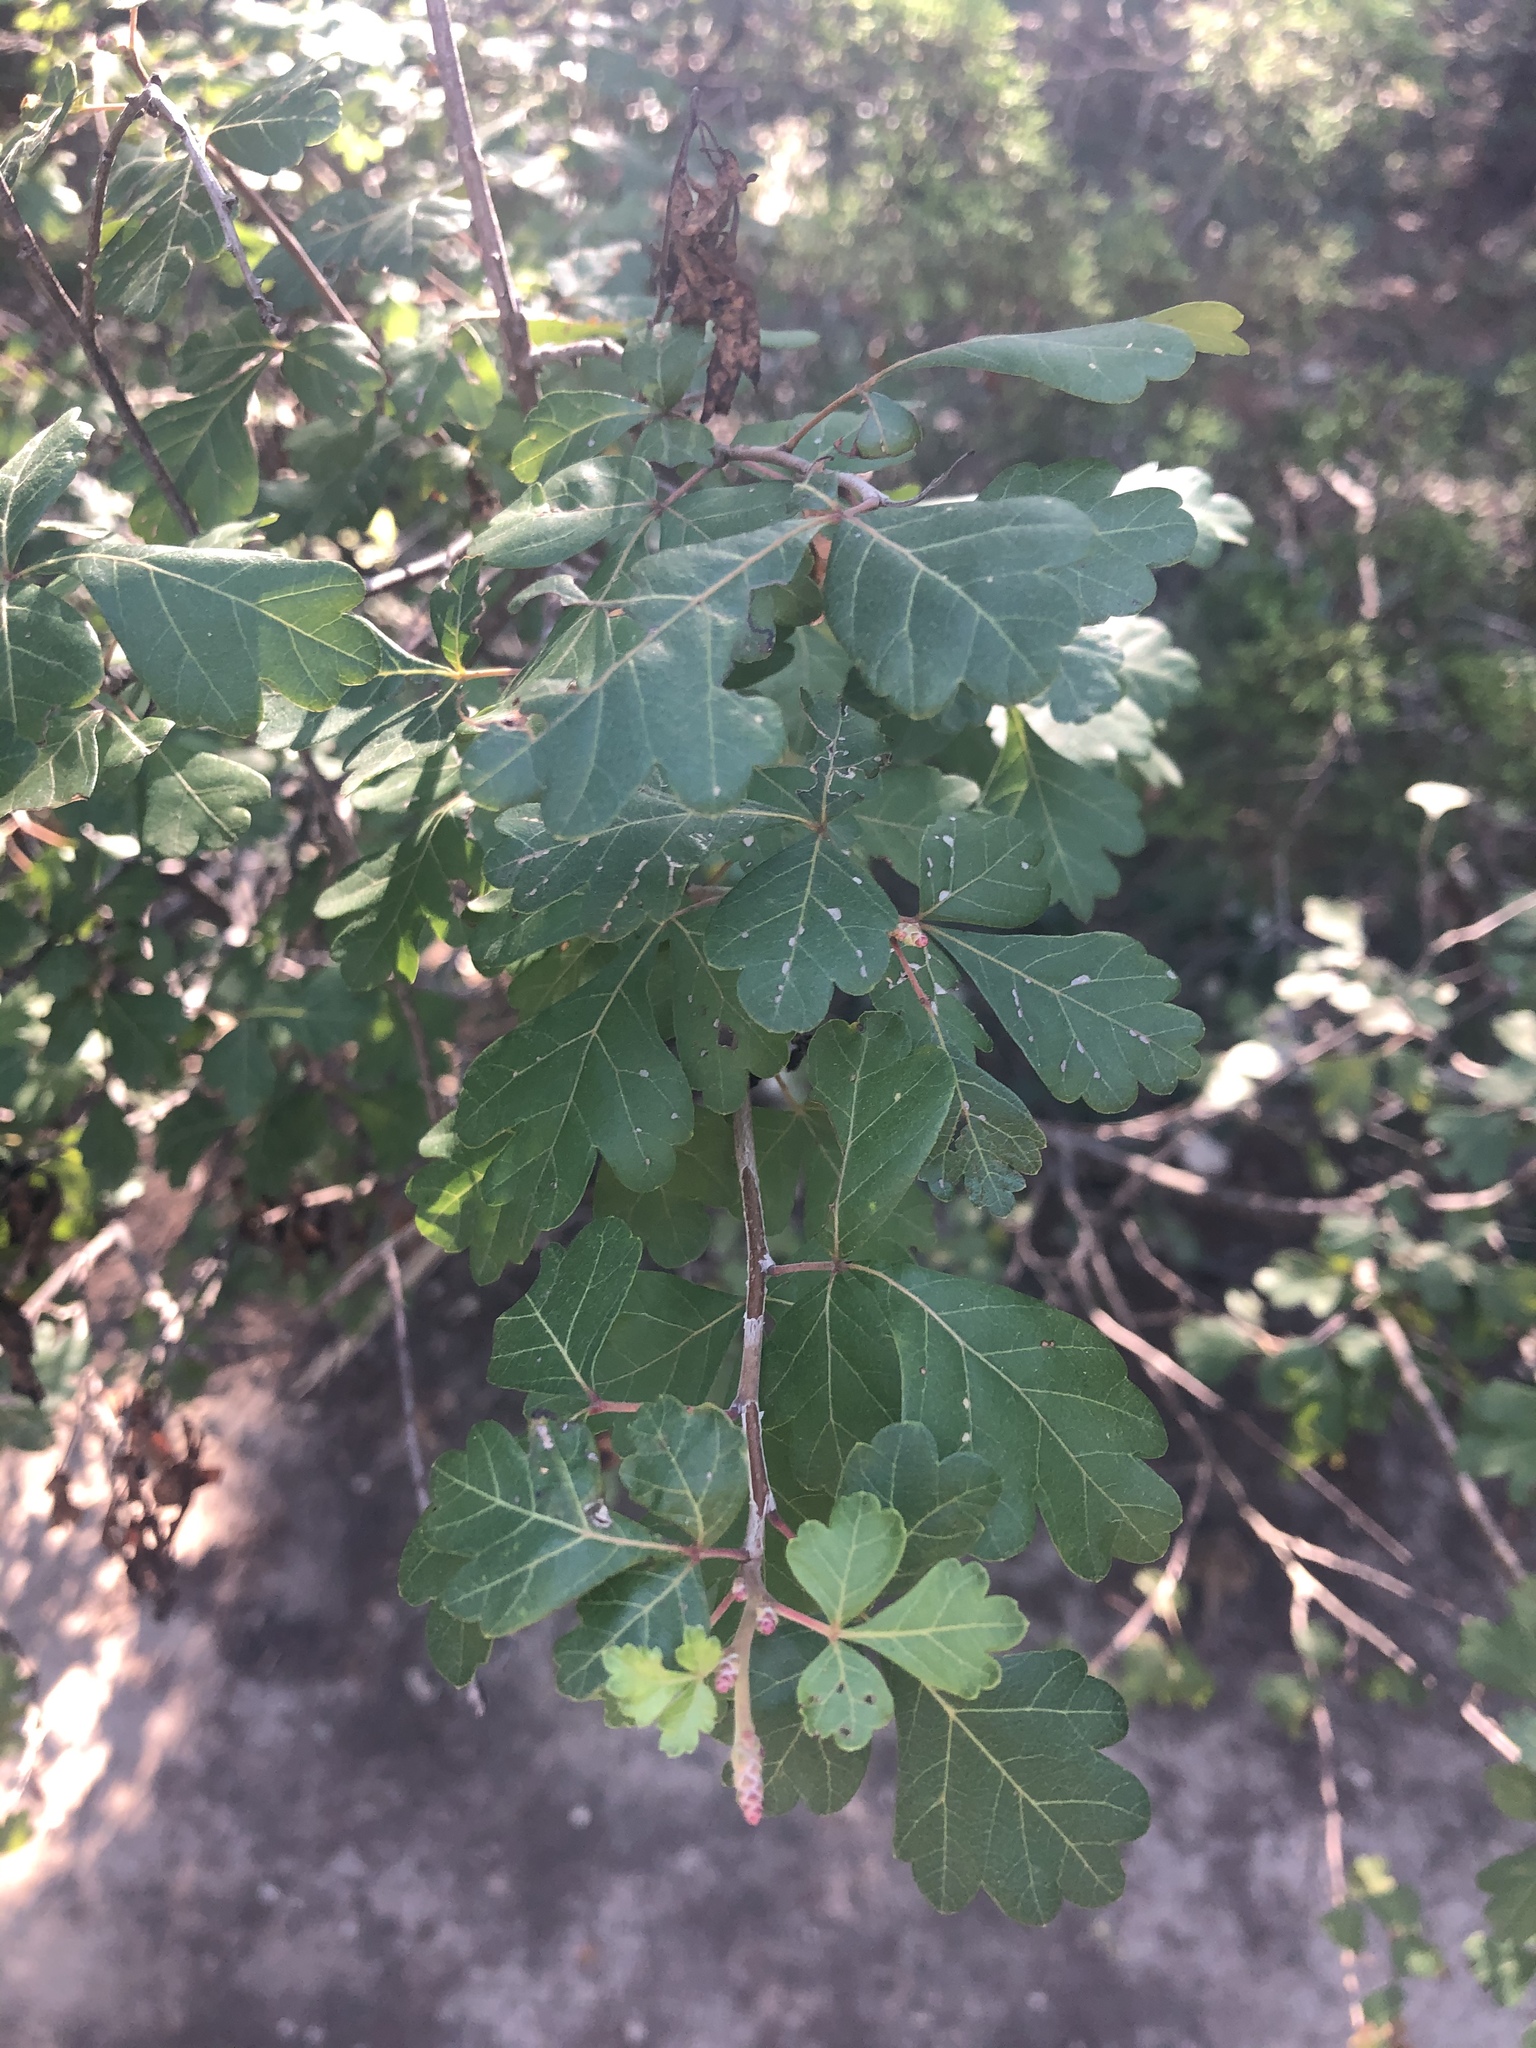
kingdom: Plantae
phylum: Tracheophyta
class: Magnoliopsida
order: Sapindales
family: Anacardiaceae
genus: Rhus
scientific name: Rhus aromatica
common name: Aromatic sumac
